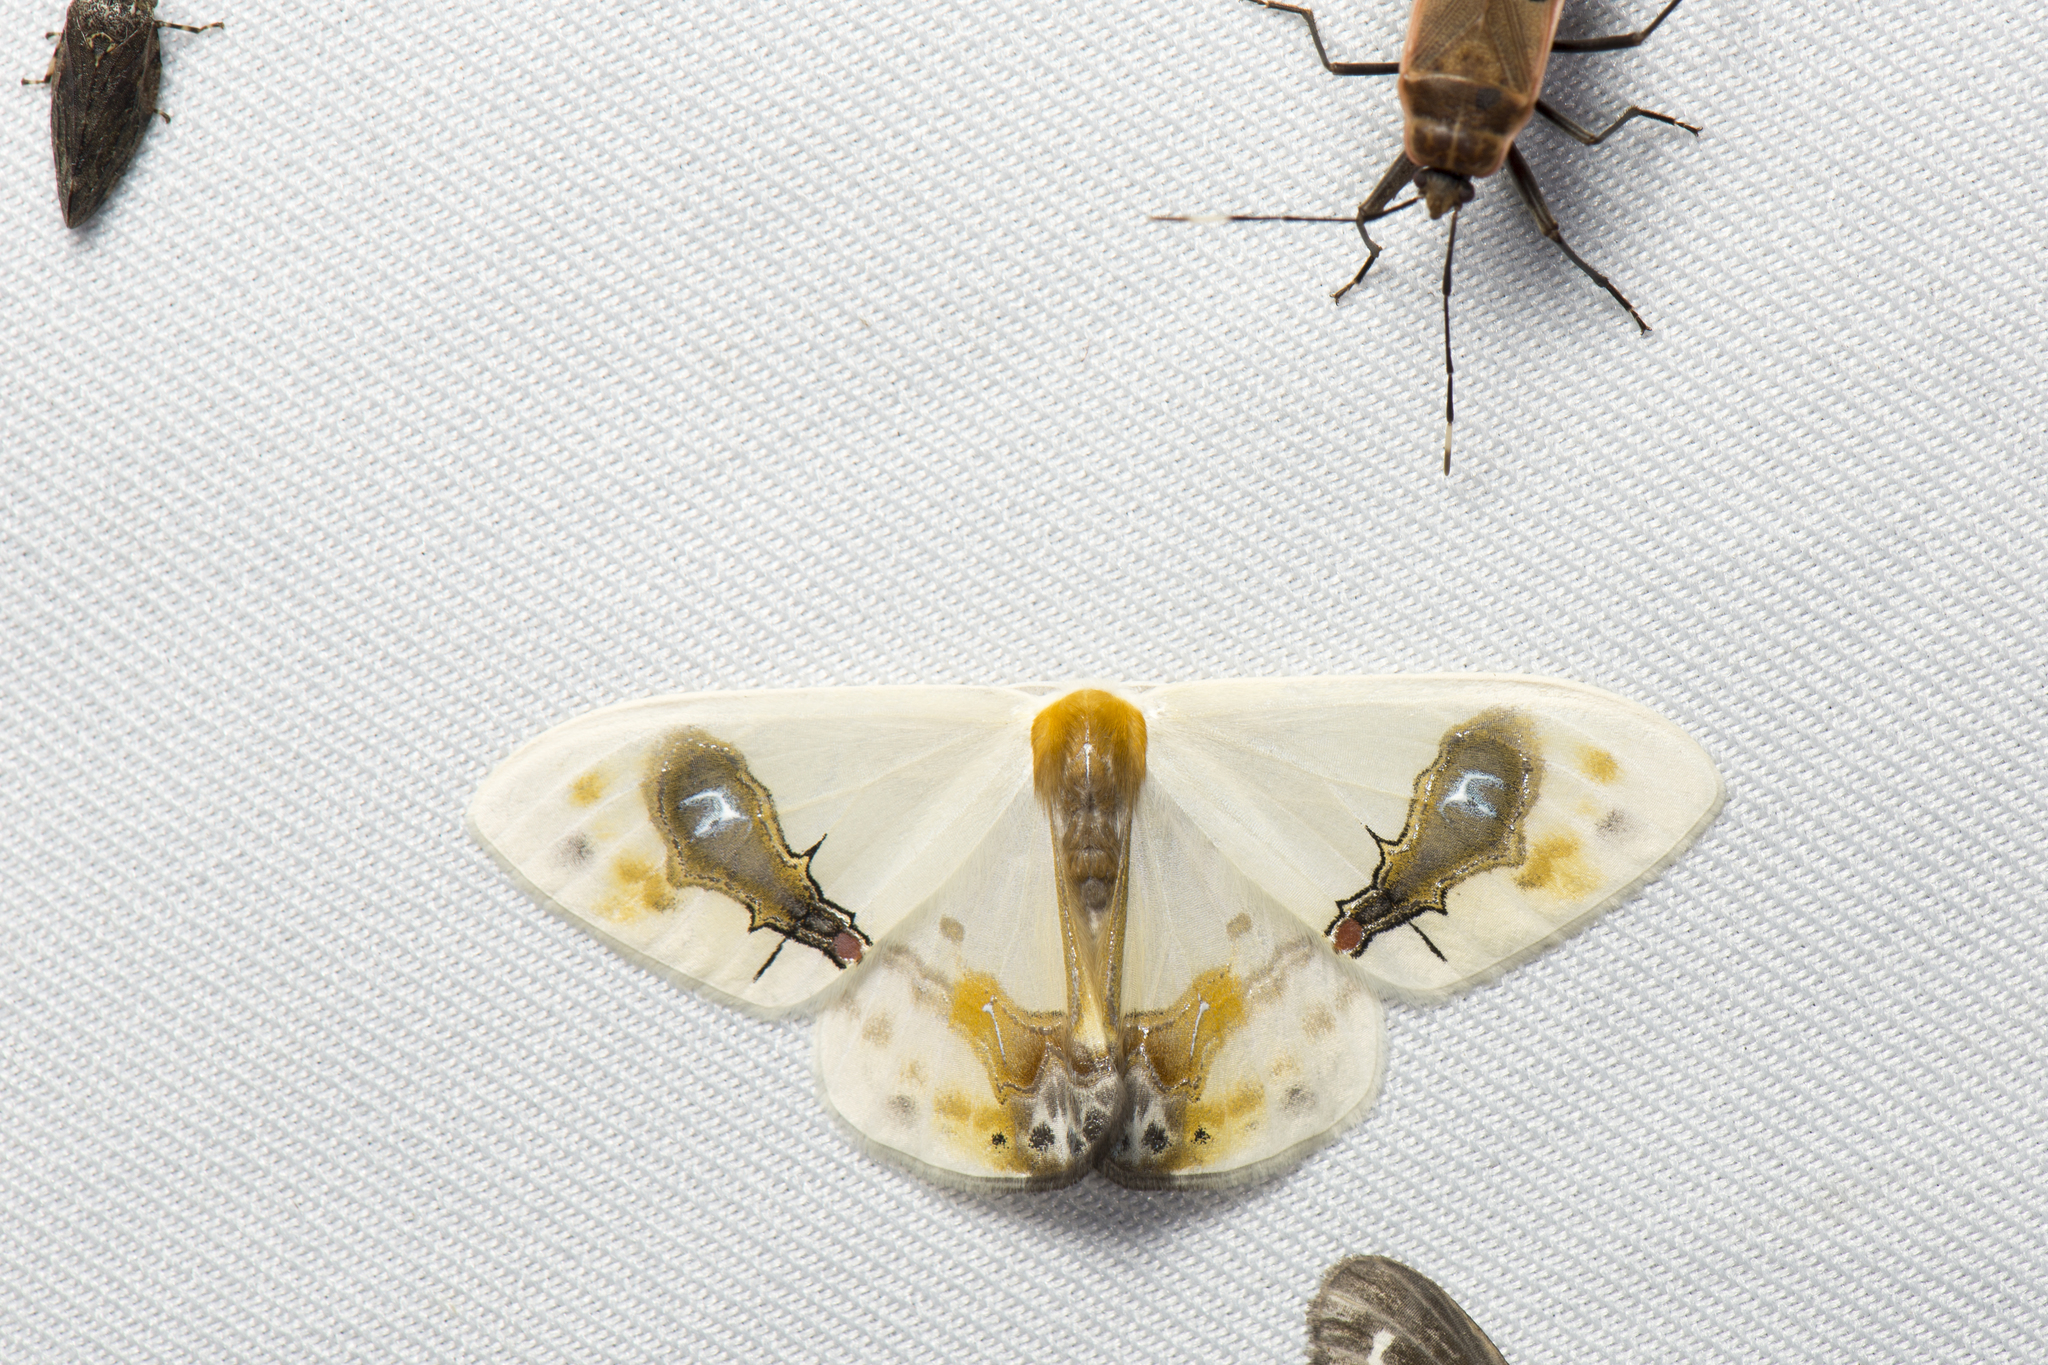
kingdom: Animalia
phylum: Arthropoda
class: Insecta
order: Lepidoptera
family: Drepanidae
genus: Macrocilix
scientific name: Macrocilix maia
